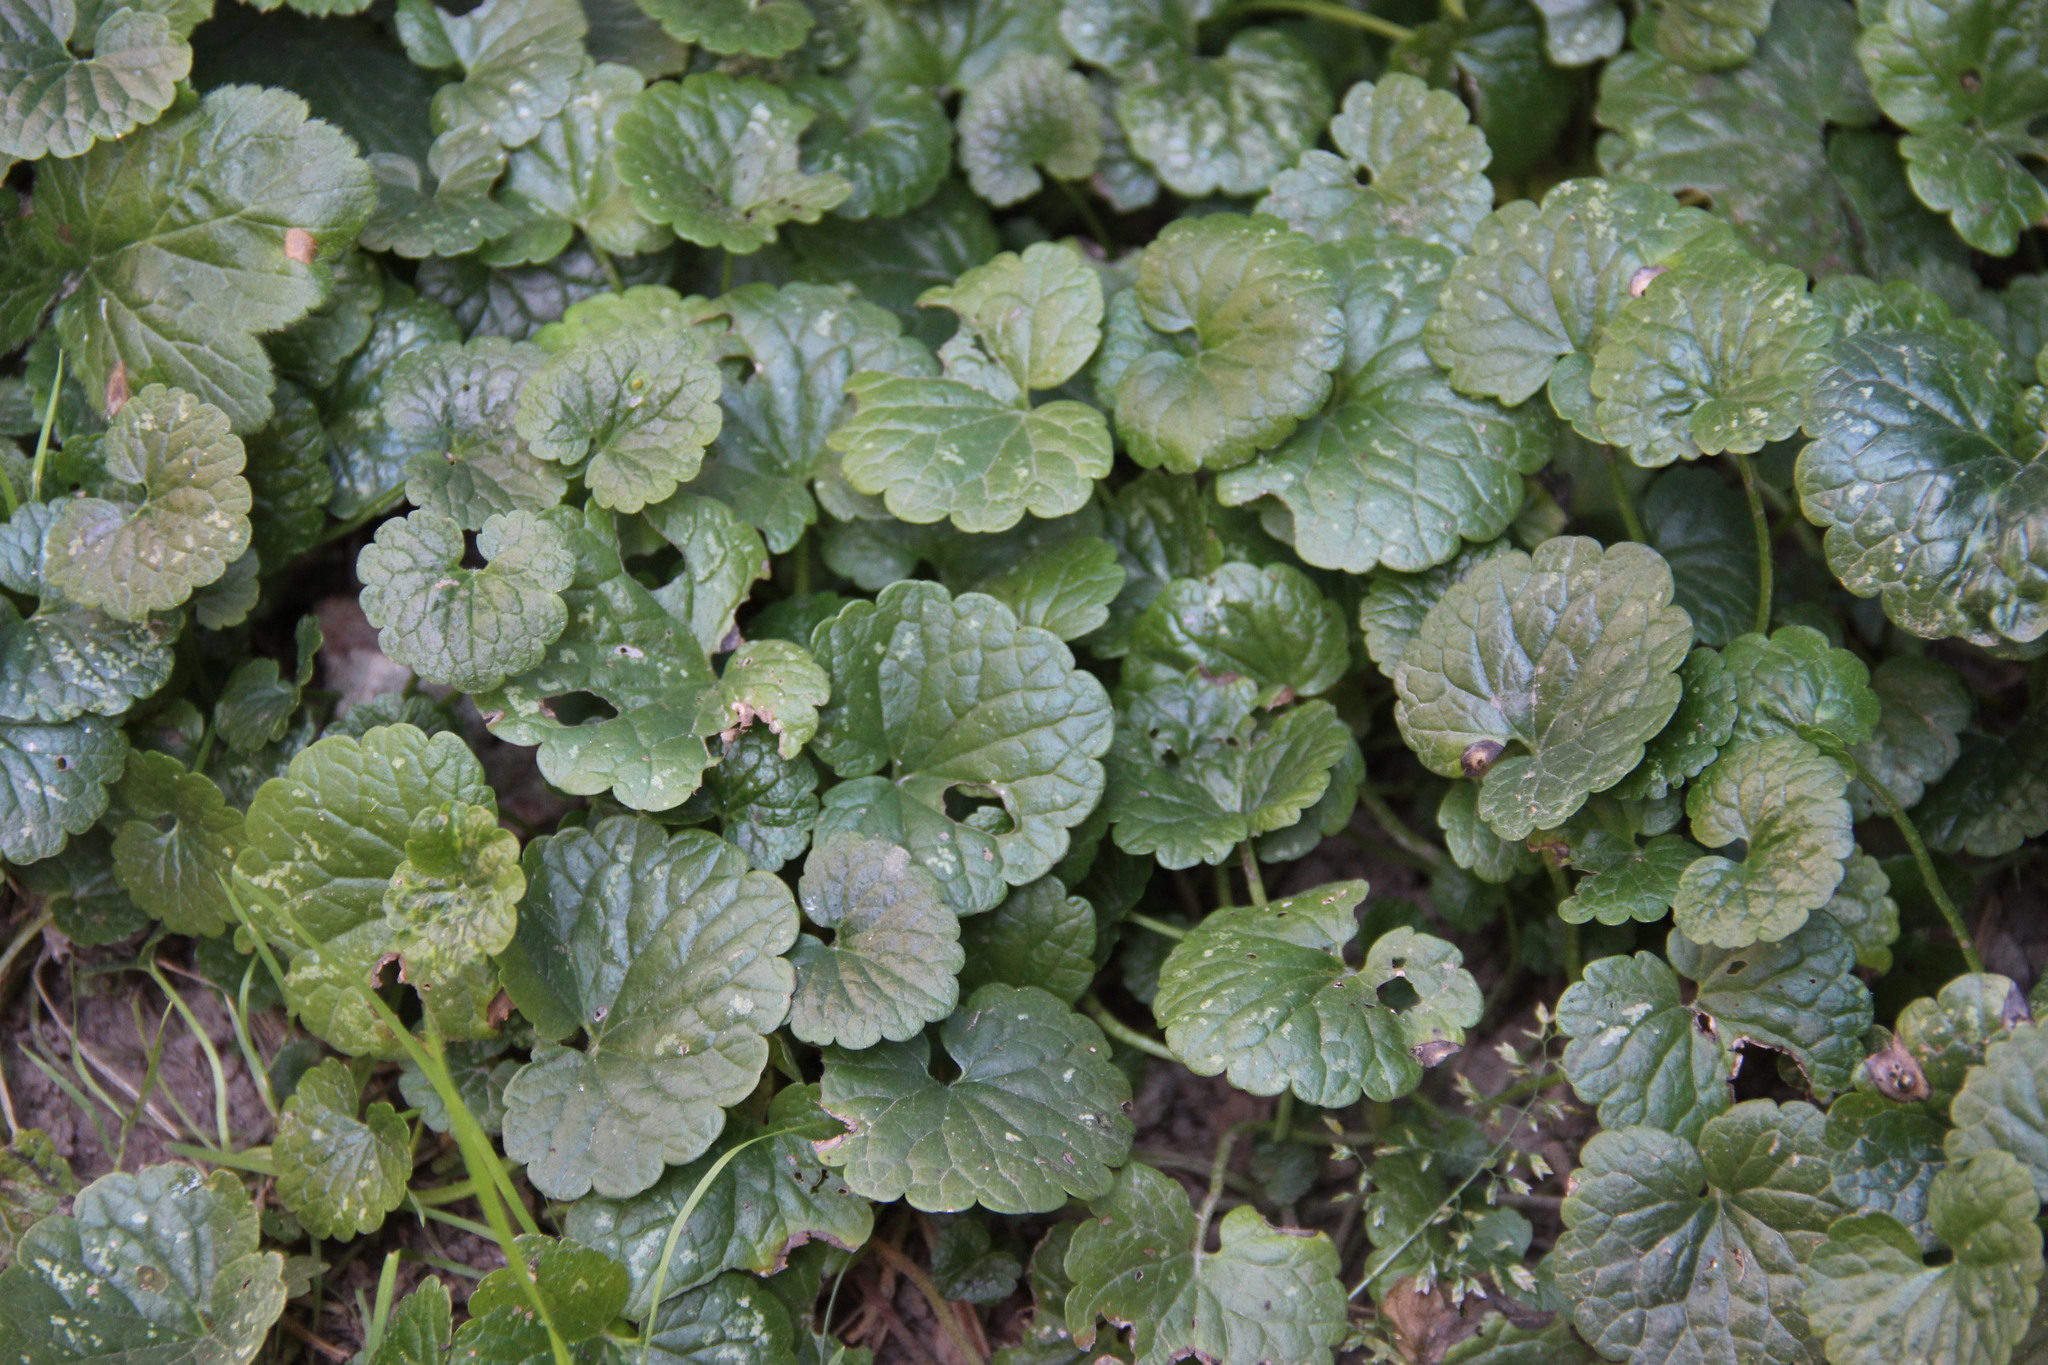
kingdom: Plantae
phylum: Tracheophyta
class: Magnoliopsida
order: Lamiales
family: Lamiaceae
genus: Glechoma
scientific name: Glechoma hederacea
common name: Ground ivy
